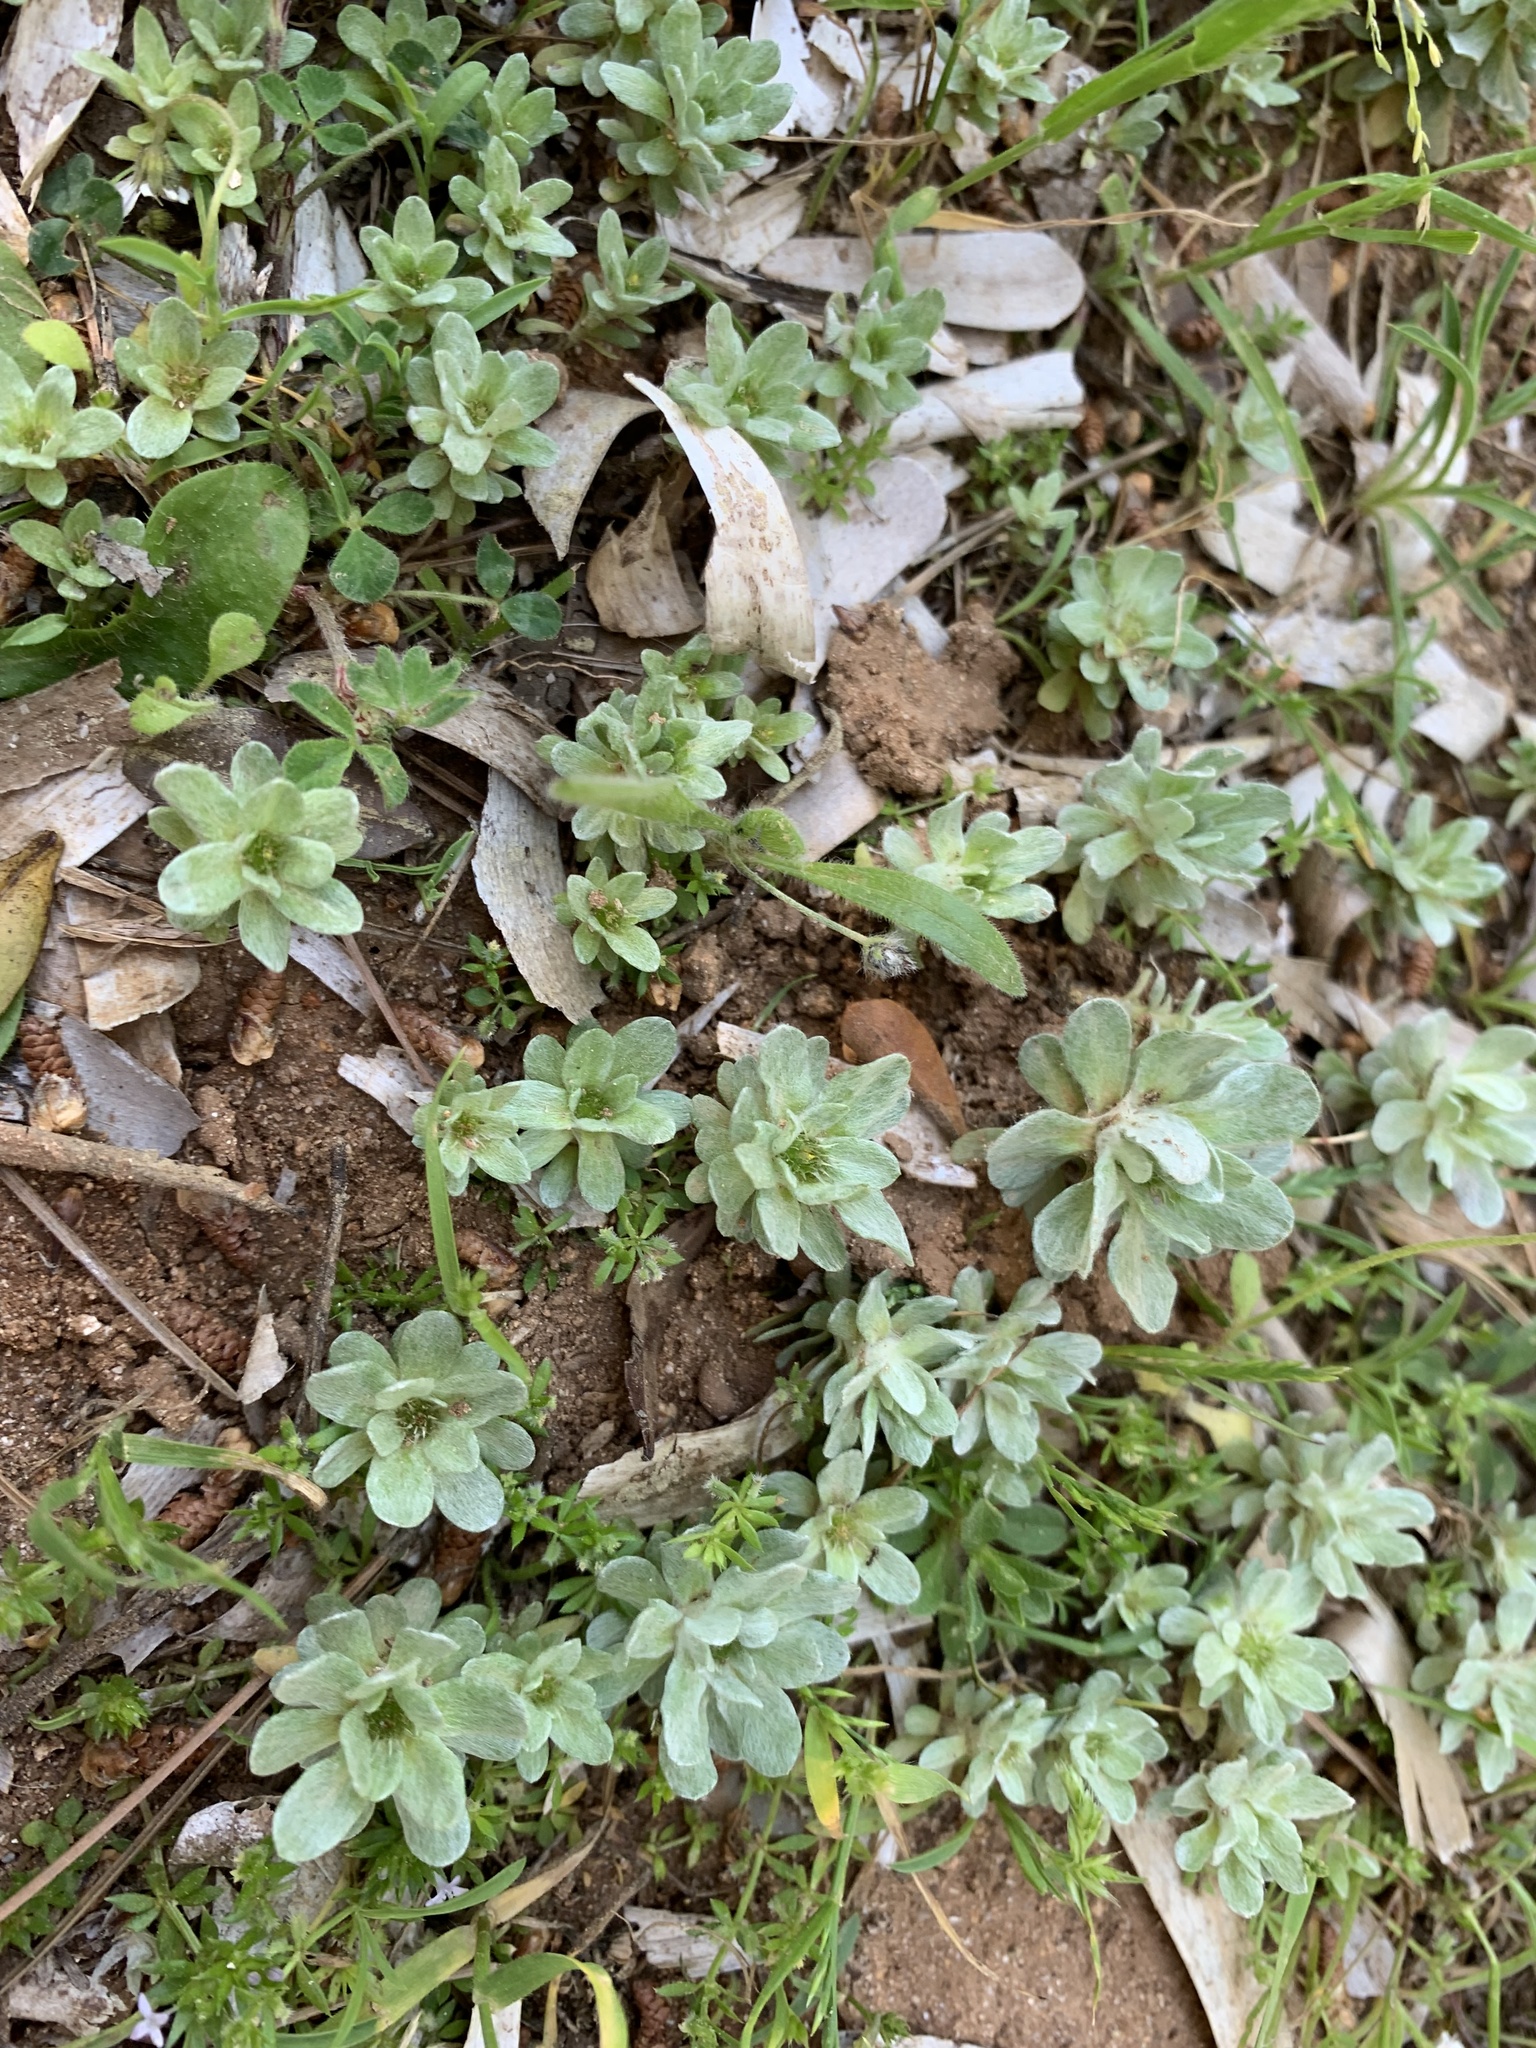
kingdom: Plantae
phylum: Tracheophyta
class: Magnoliopsida
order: Asterales
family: Asteraceae
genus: Filago
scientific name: Filago pygmaea
